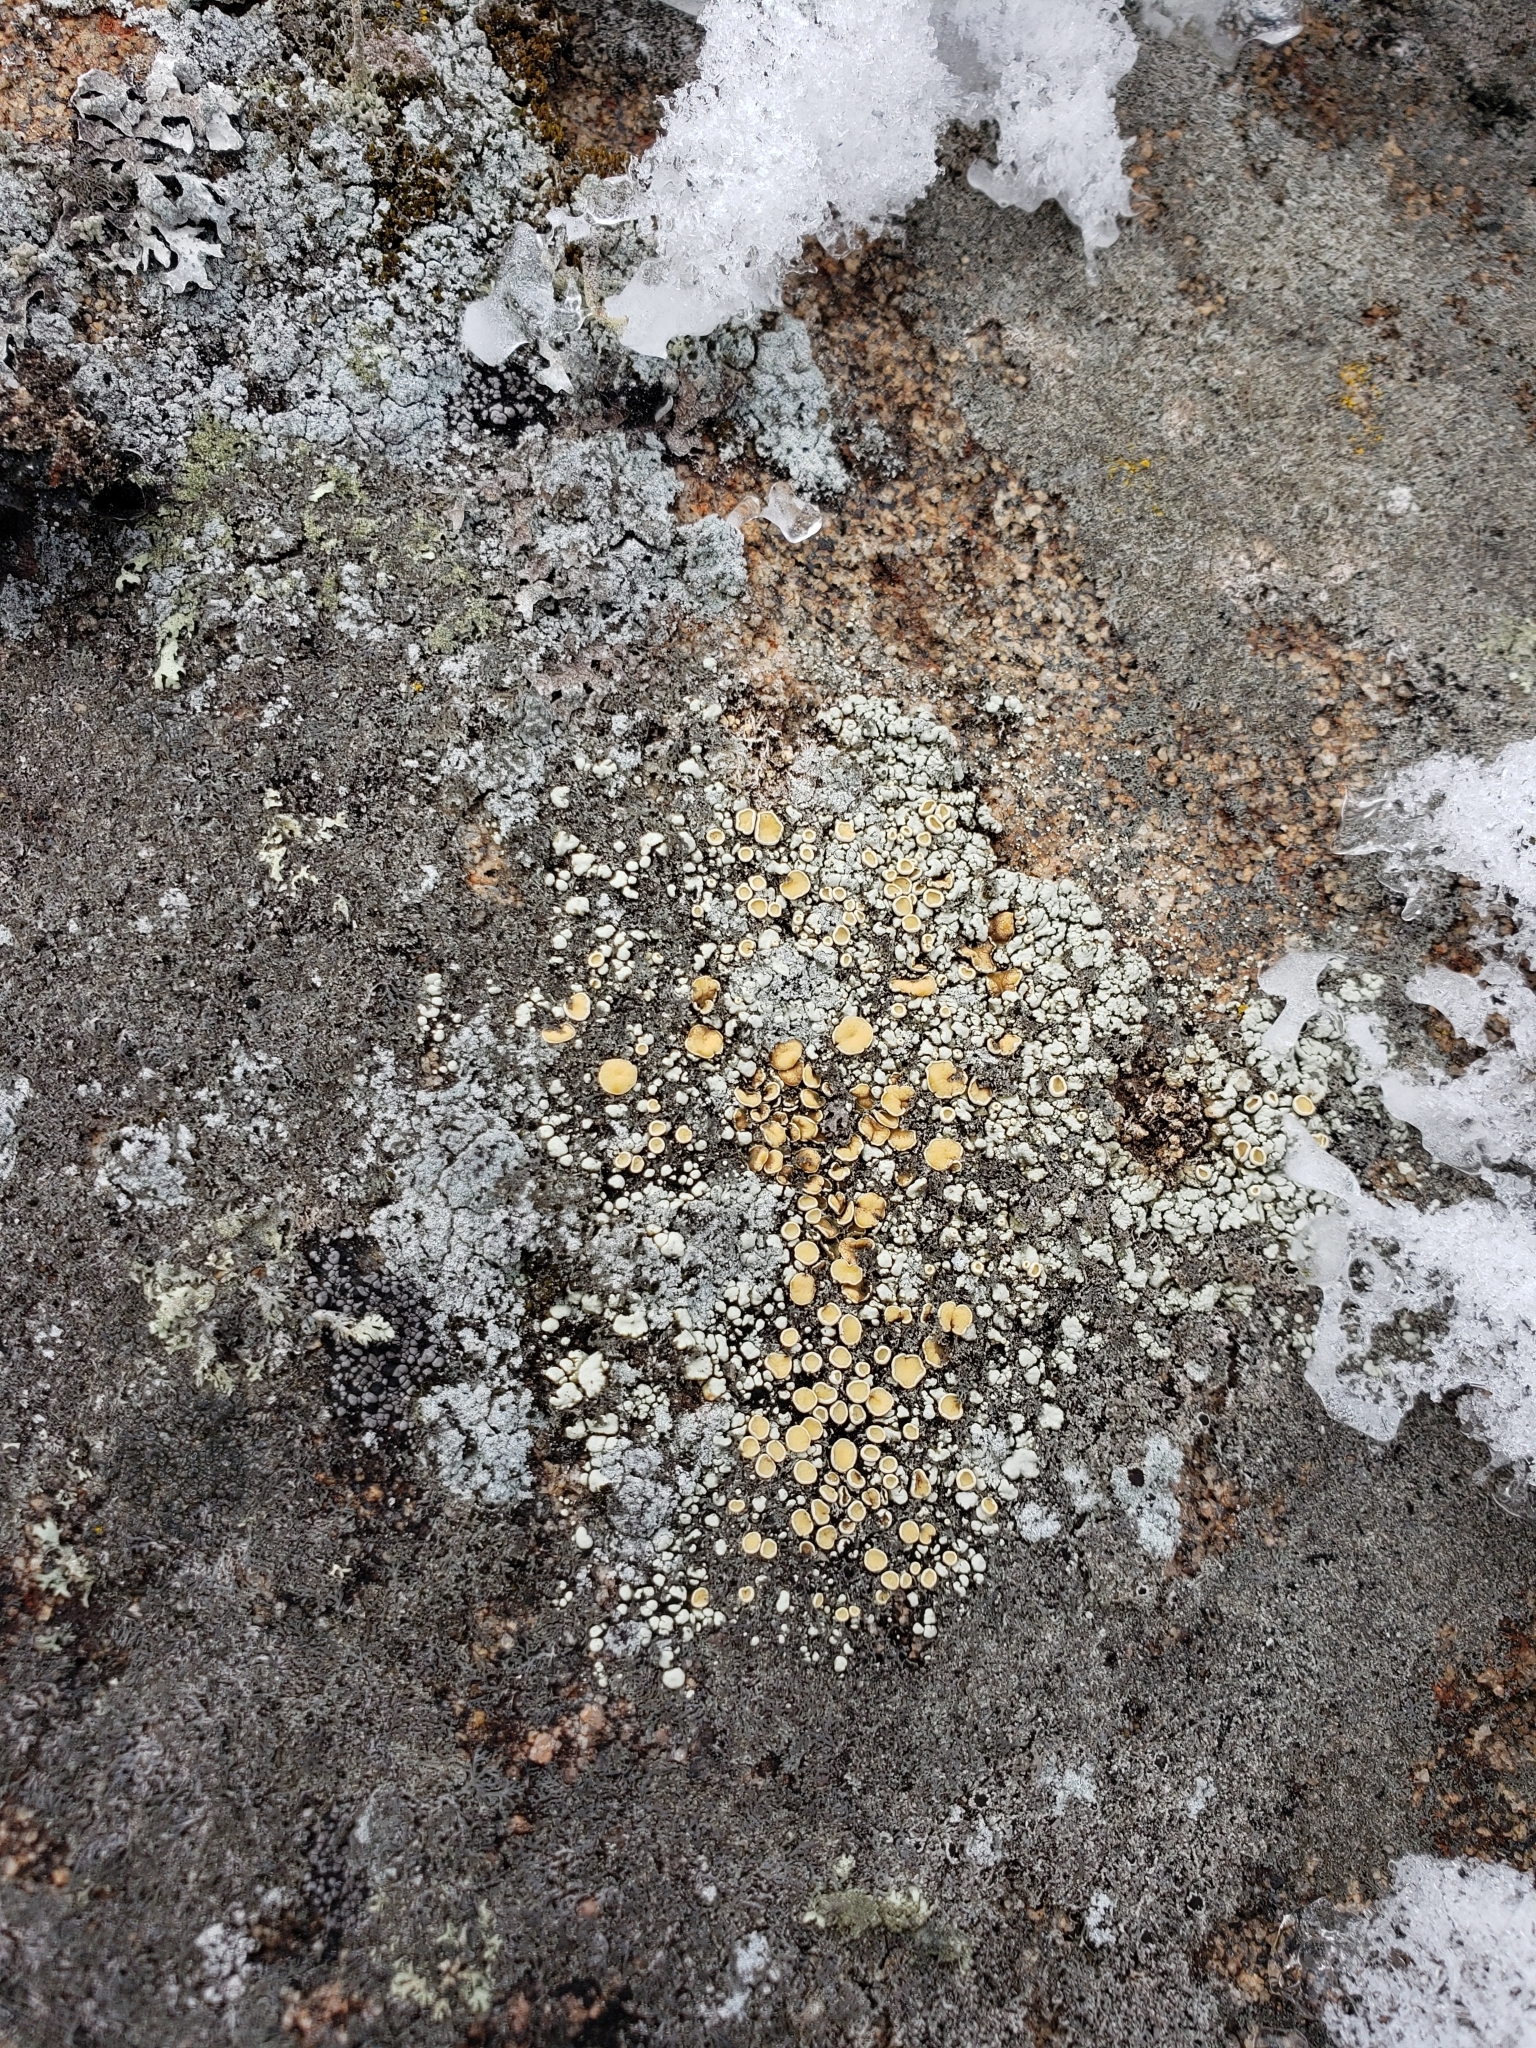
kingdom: Fungi
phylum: Ascomycota
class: Lecanoromycetes
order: Lecanorales
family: Lecanoraceae
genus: Sedelnikovaea
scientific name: Sedelnikovaea subdiscrepans
